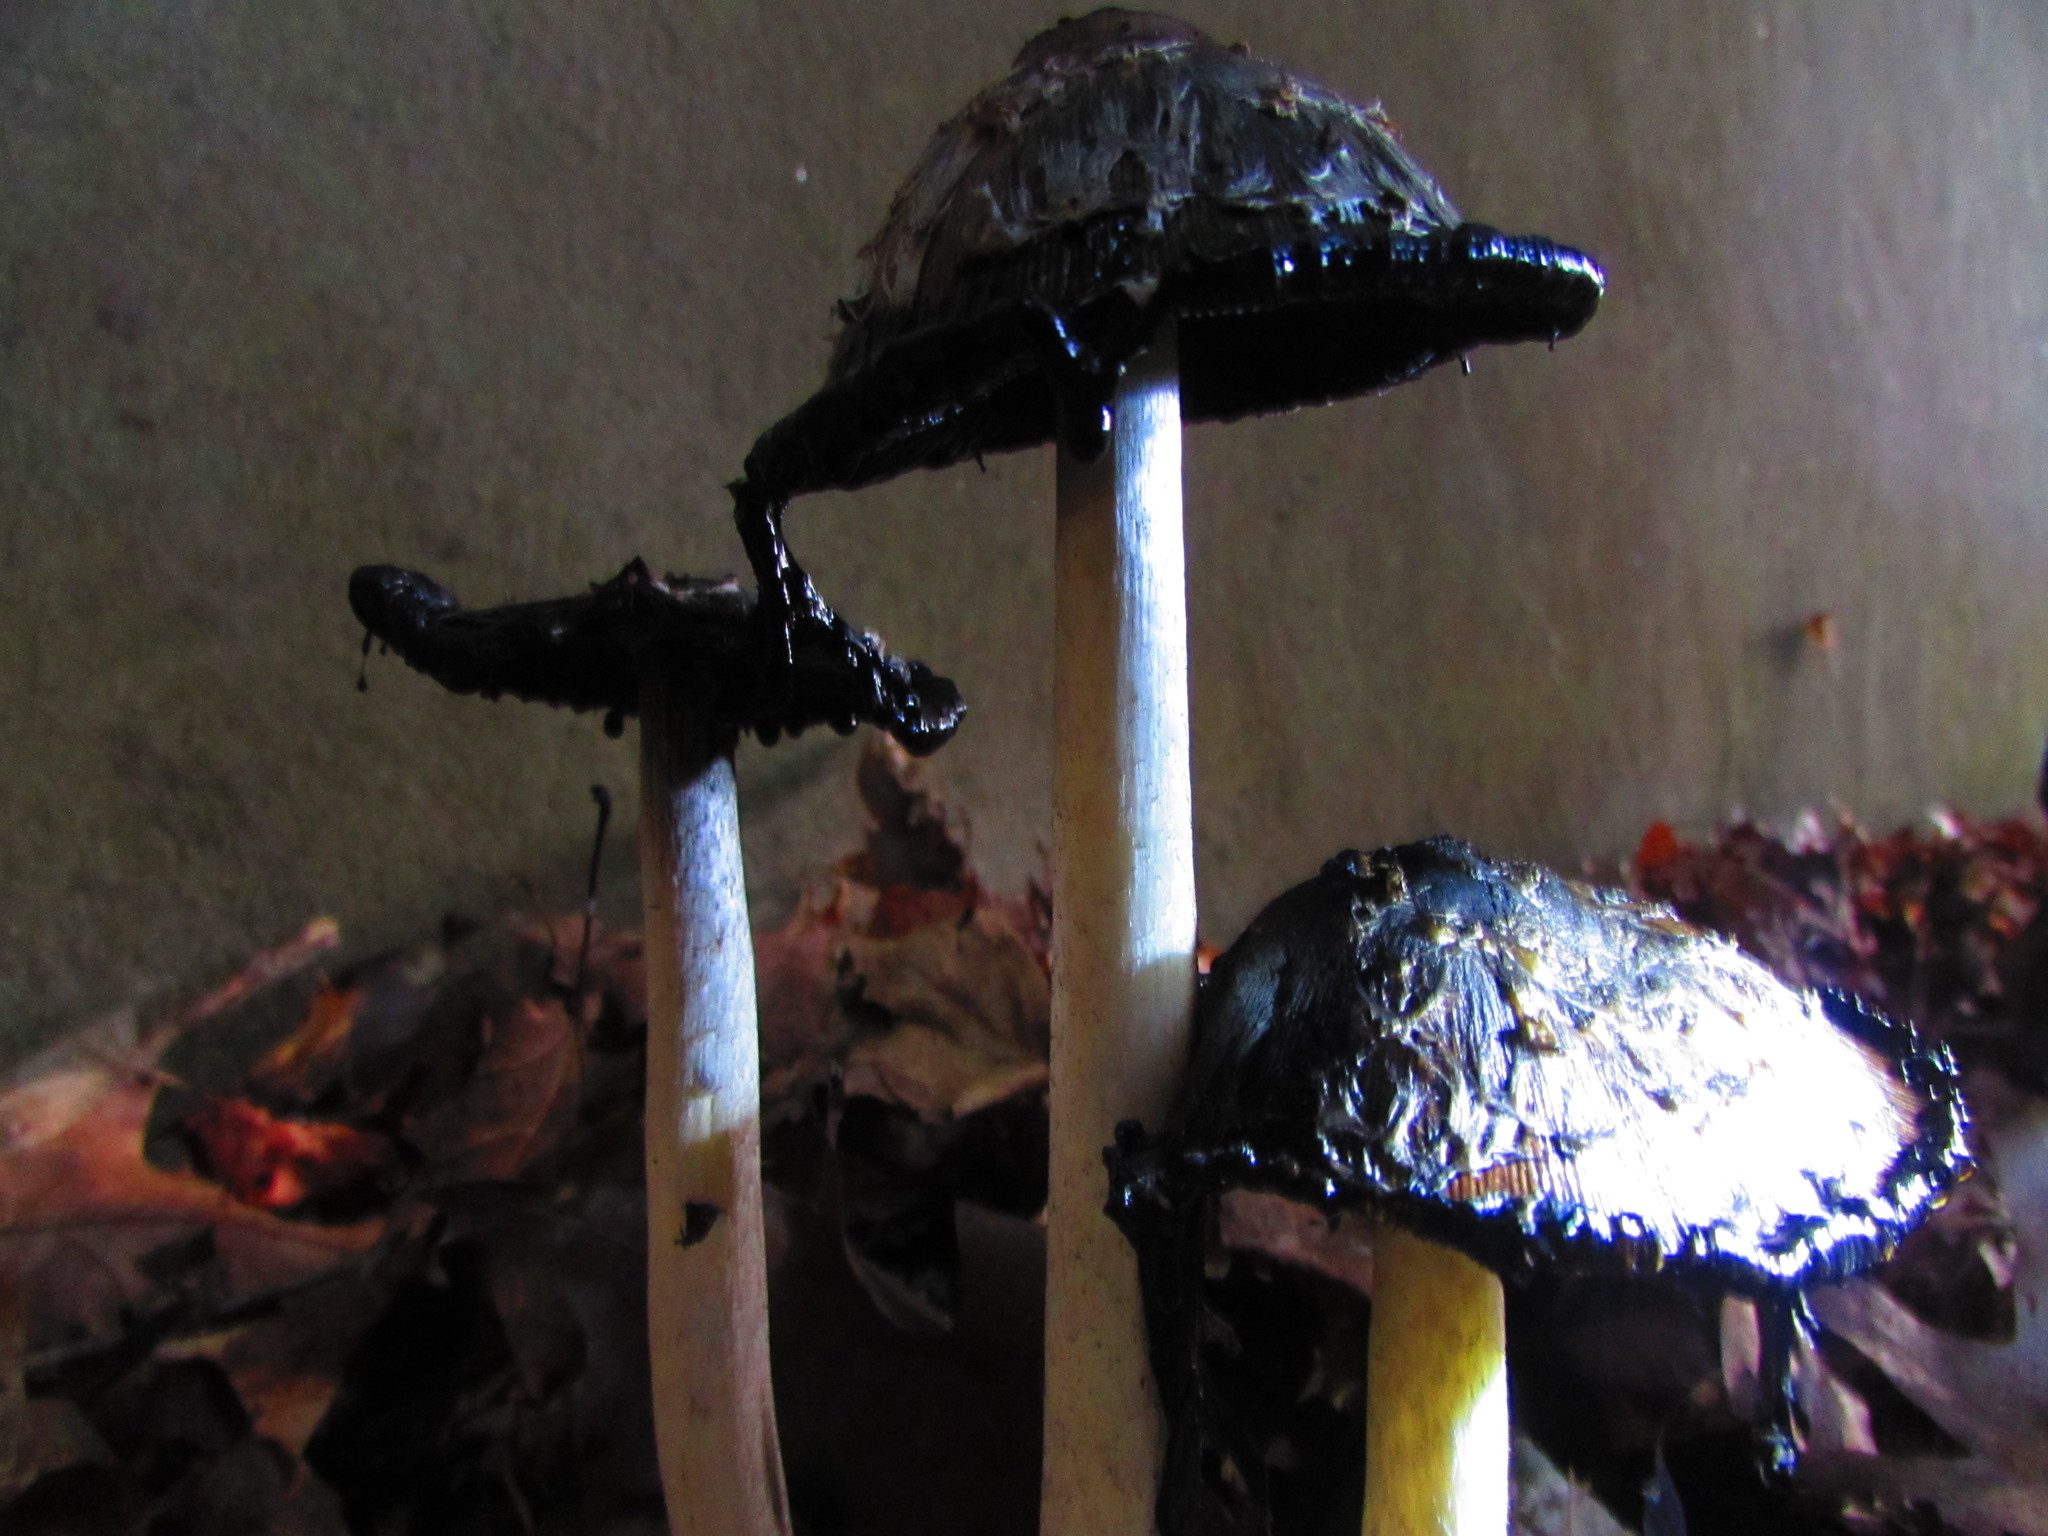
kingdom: Fungi
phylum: Basidiomycota
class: Agaricomycetes
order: Agaricales
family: Agaricaceae
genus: Coprinus
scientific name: Coprinus comatus
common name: Lawyer's wig
